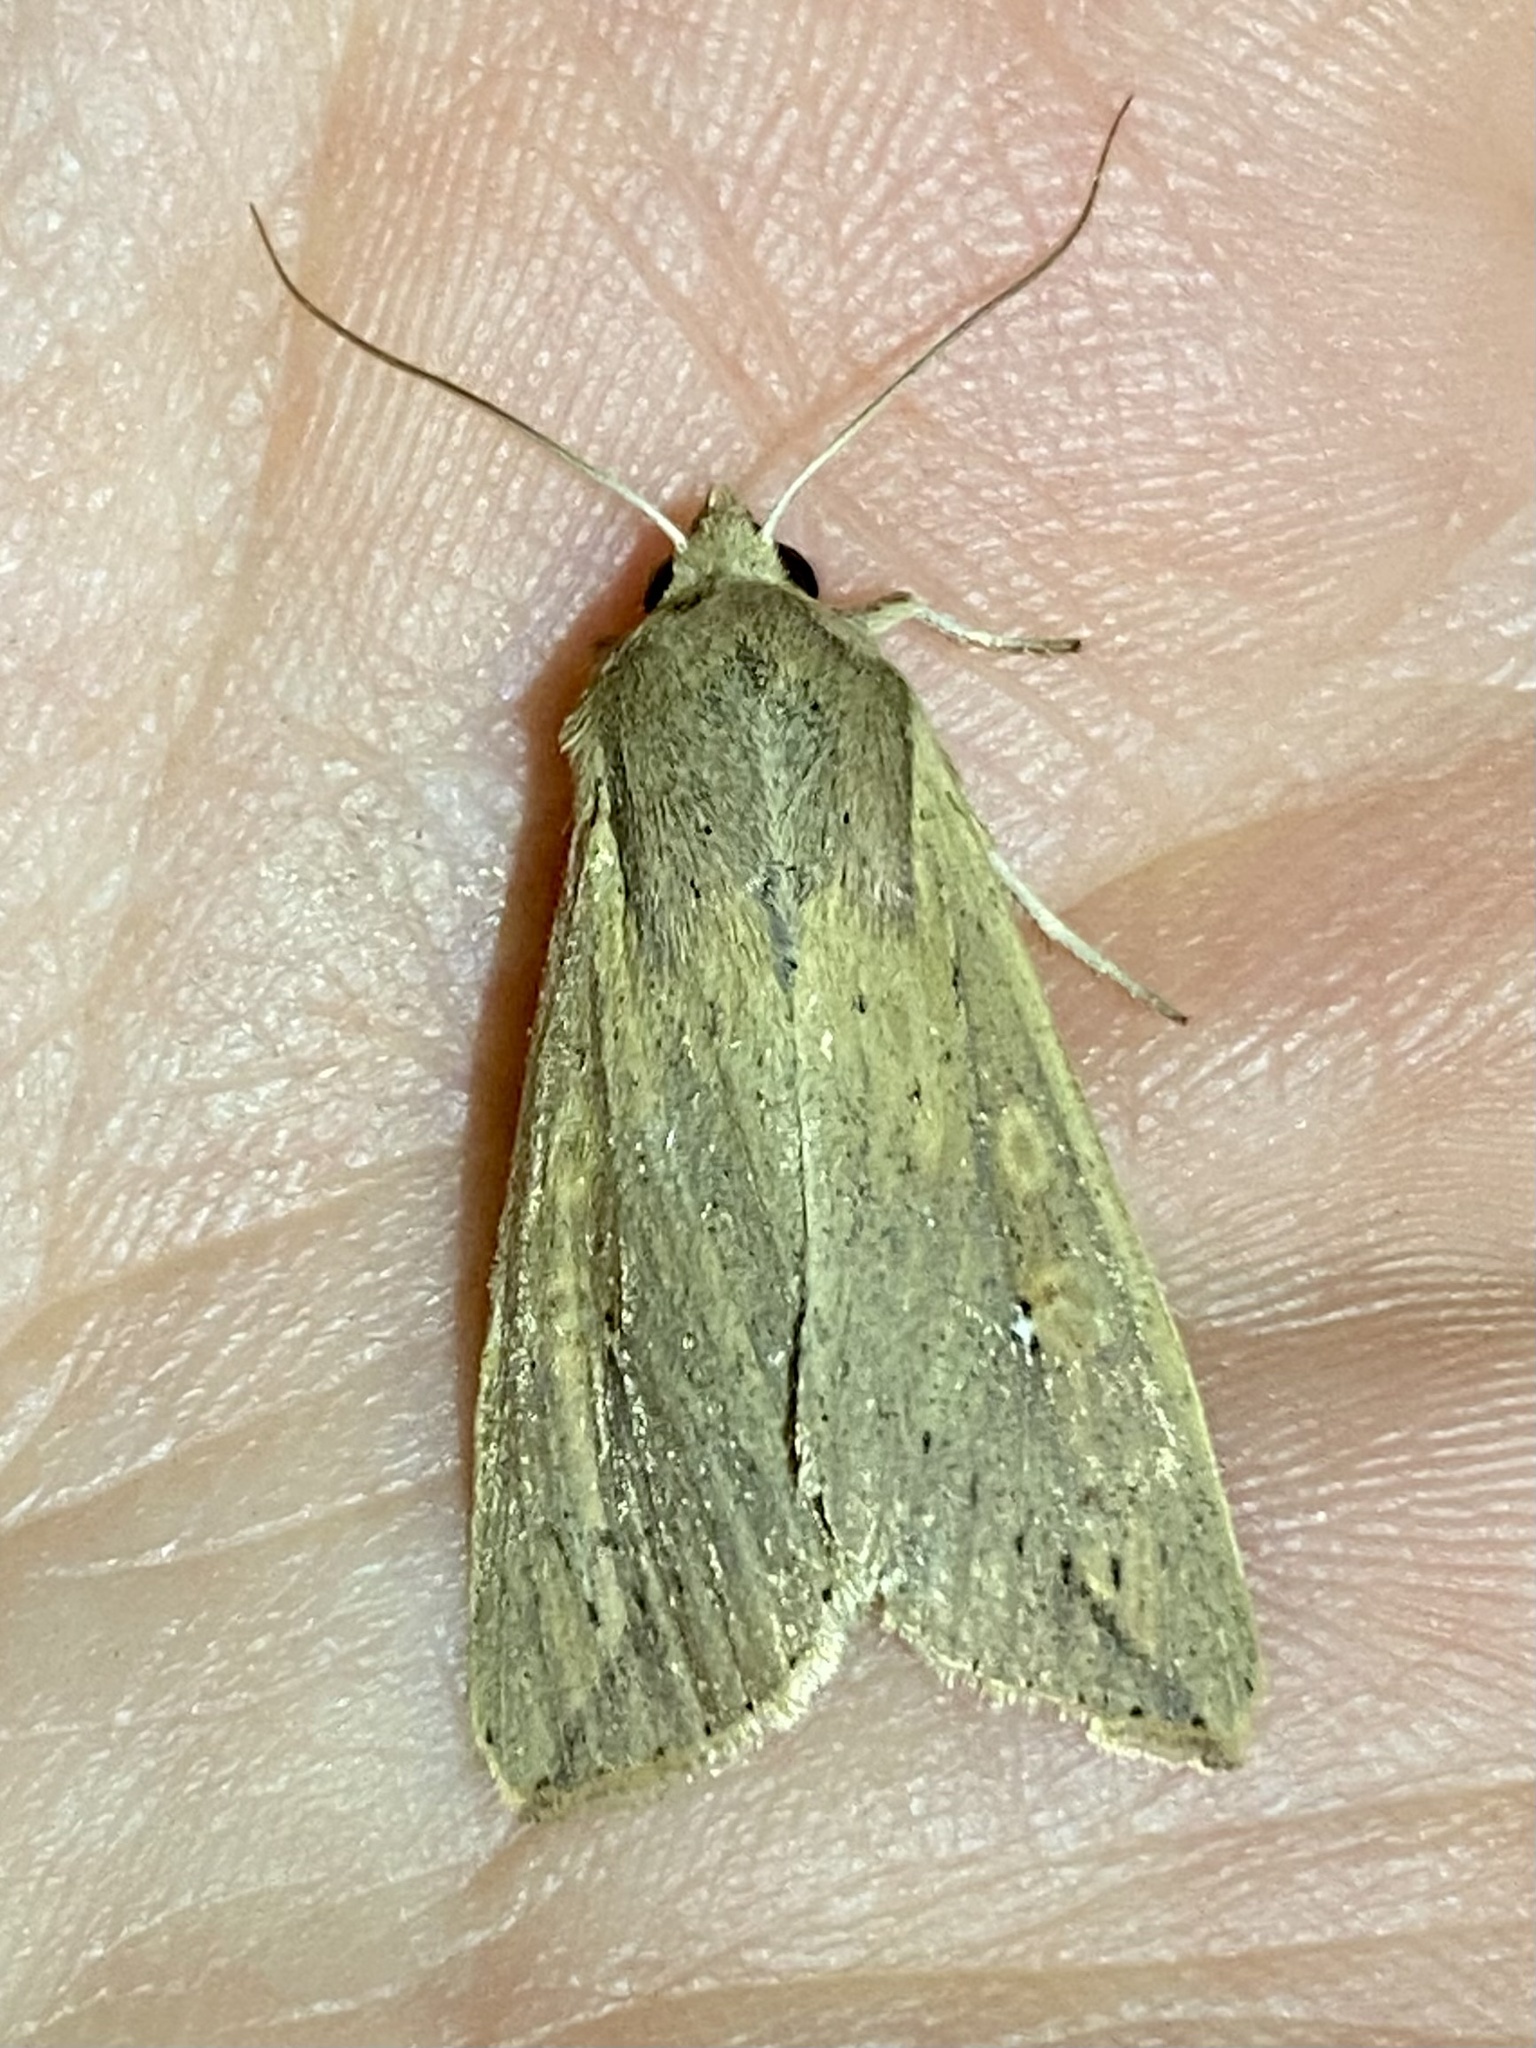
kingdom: Animalia
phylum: Arthropoda
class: Insecta
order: Lepidoptera
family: Noctuidae
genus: Mythimna
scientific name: Mythimna unipuncta
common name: White-speck
